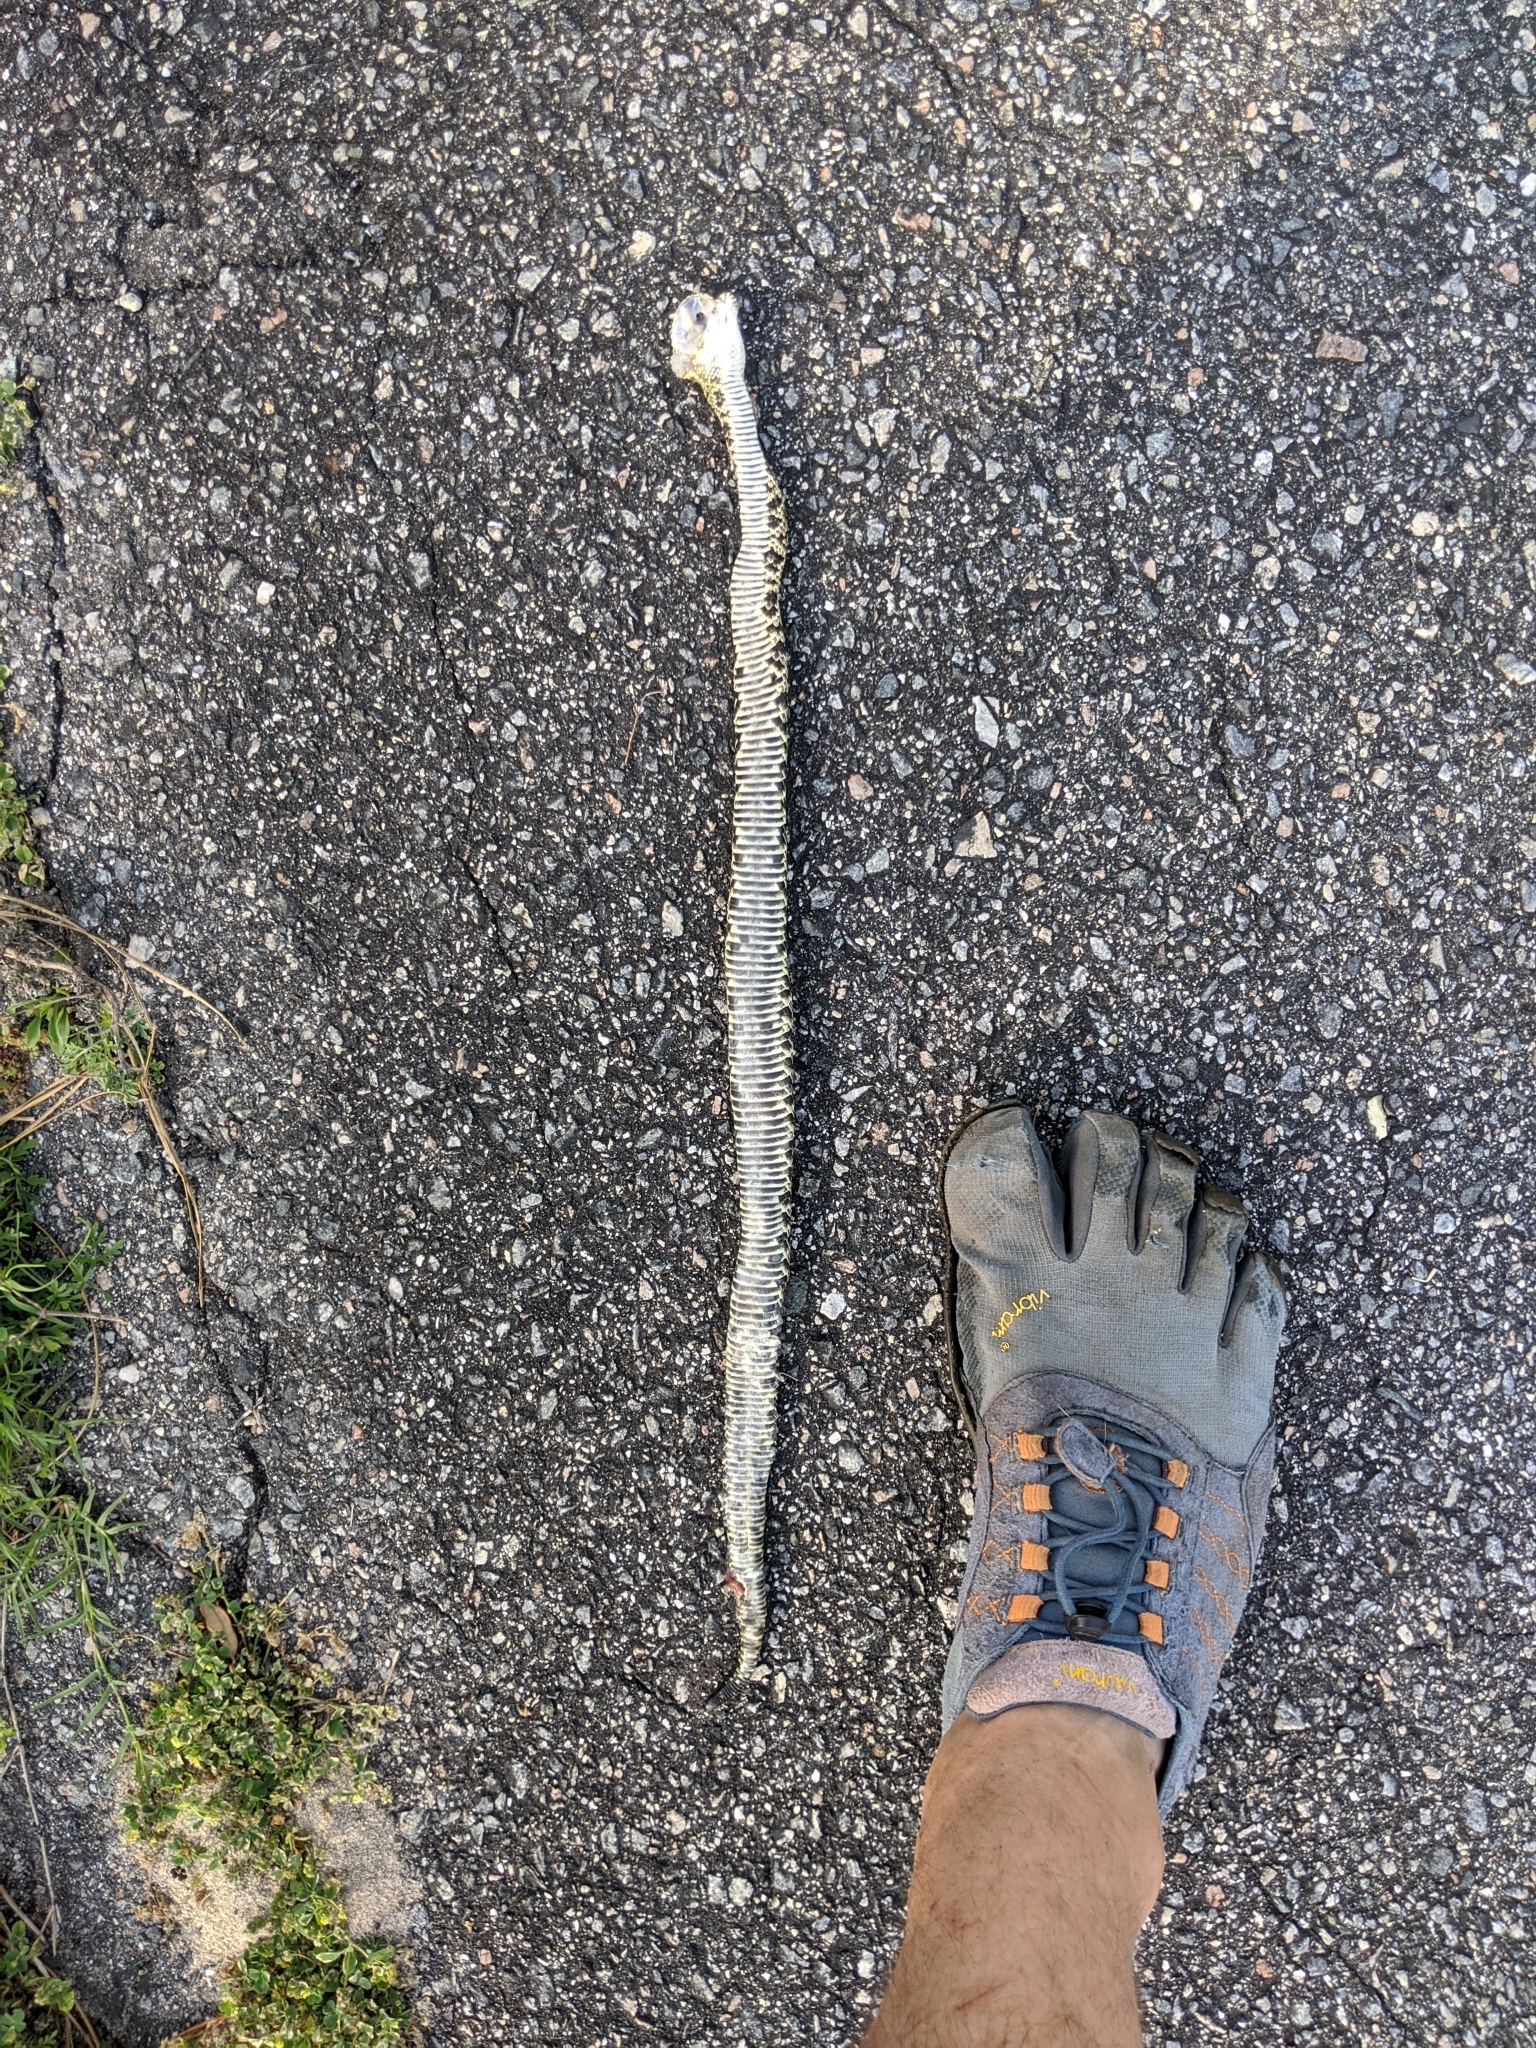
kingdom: Animalia
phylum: Chordata
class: Squamata
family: Viperidae
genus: Crotalus
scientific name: Crotalus adamanteus
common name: Eastern diamondback rattlesnake
